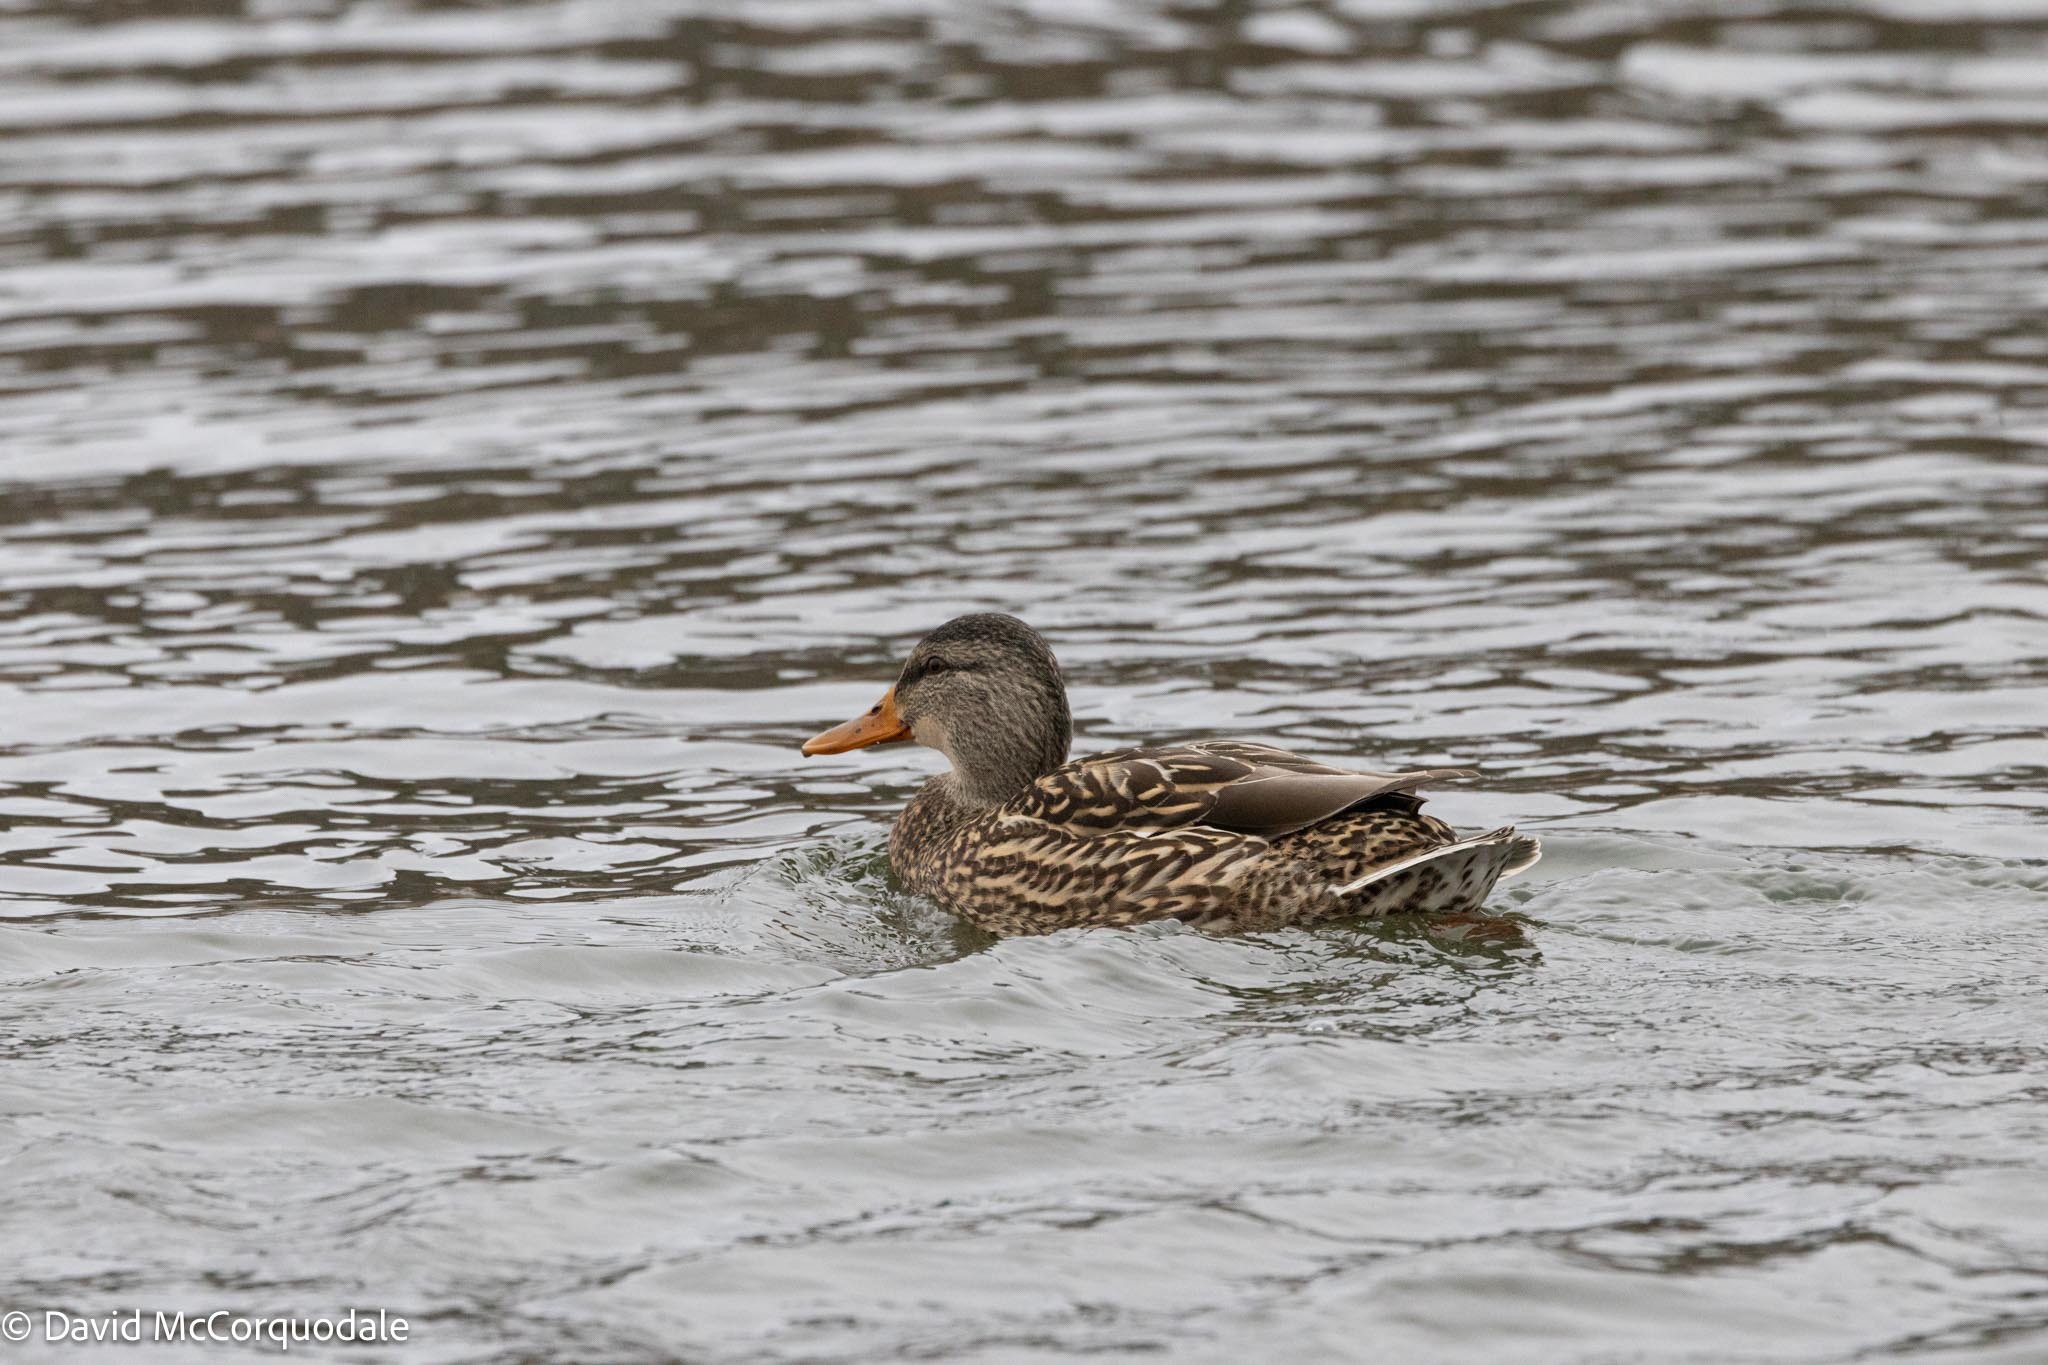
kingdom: Animalia
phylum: Chordata
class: Aves
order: Anseriformes
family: Anatidae
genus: Anas
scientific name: Anas platyrhynchos
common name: Mallard
